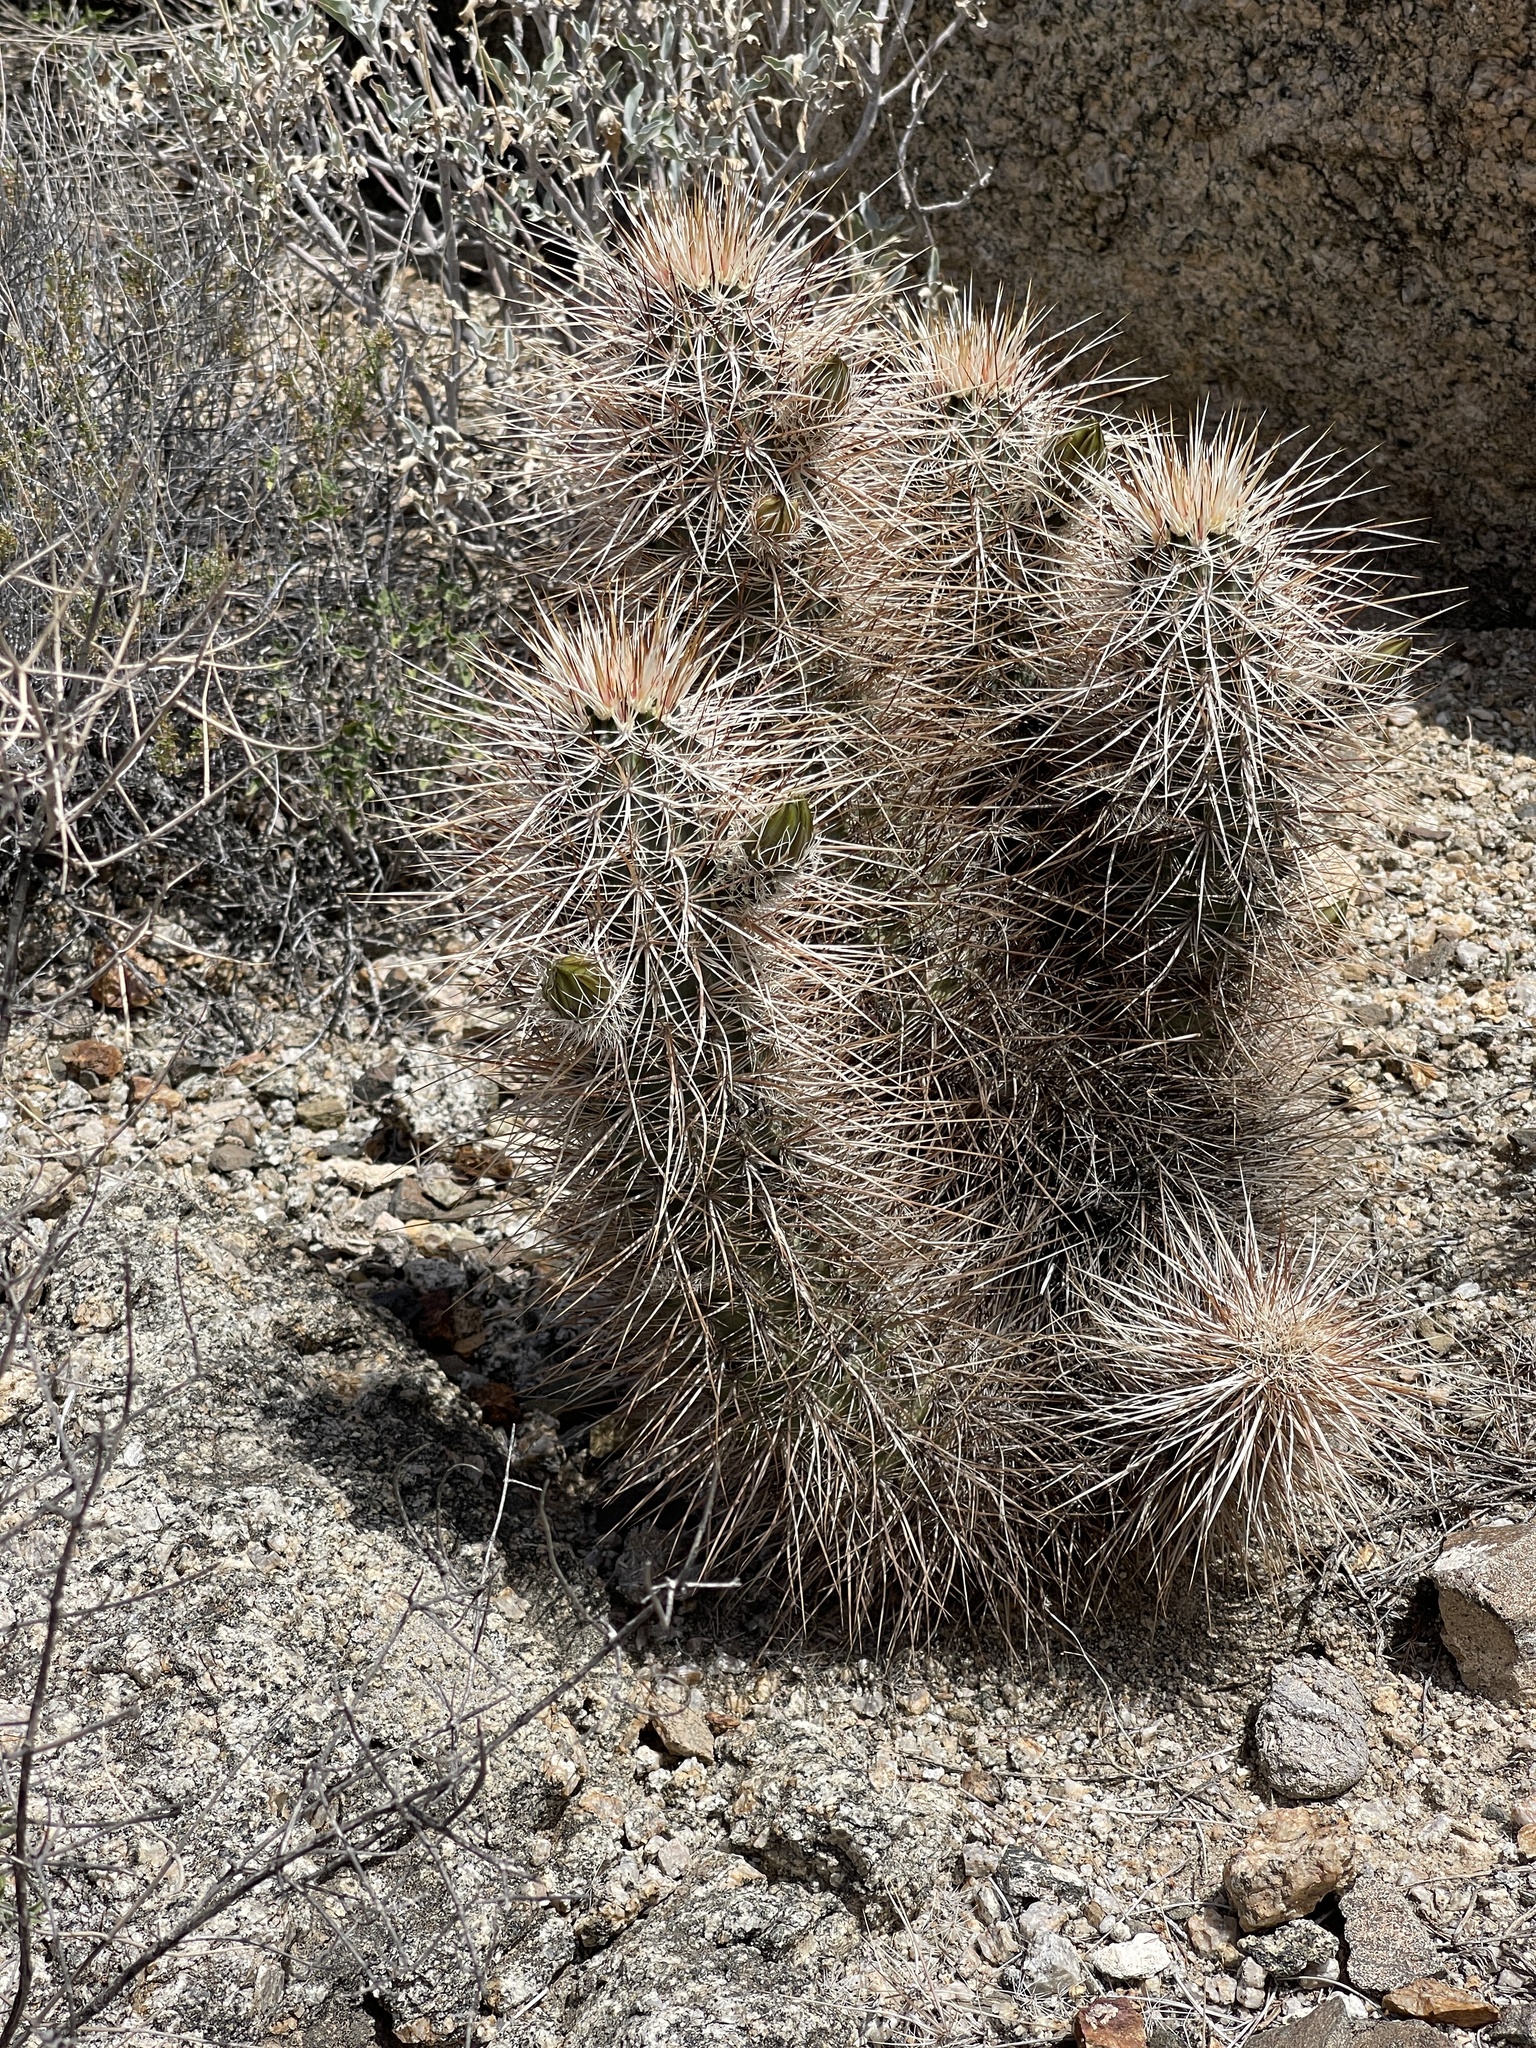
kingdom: Plantae
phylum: Tracheophyta
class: Magnoliopsida
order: Caryophyllales
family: Cactaceae
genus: Echinocereus
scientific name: Echinocereus engelmannii
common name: Engelmann's hedgehog cactus
